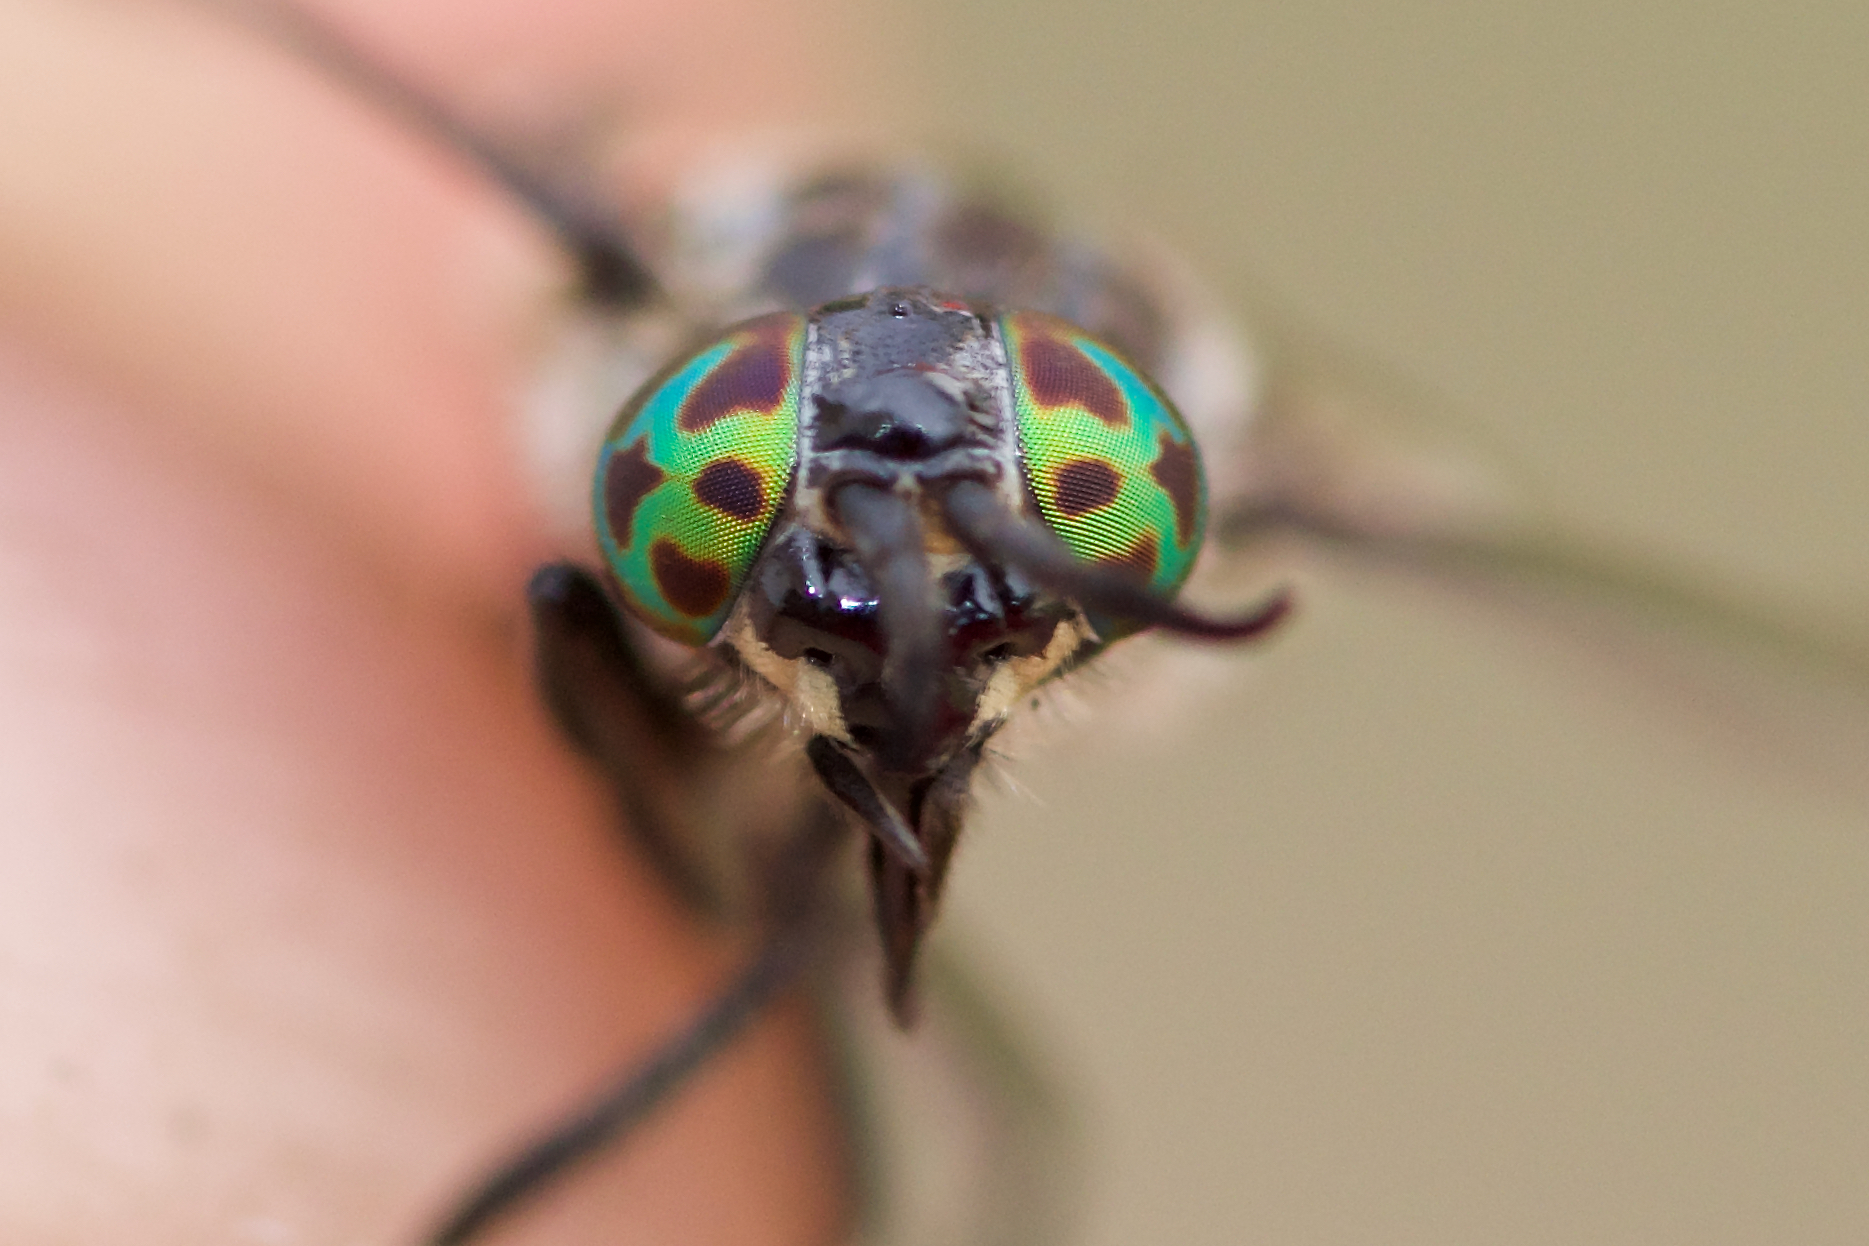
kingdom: Animalia
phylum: Arthropoda
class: Insecta
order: Diptera
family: Tabanidae
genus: Chrysops
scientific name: Chrysops zinzalus
